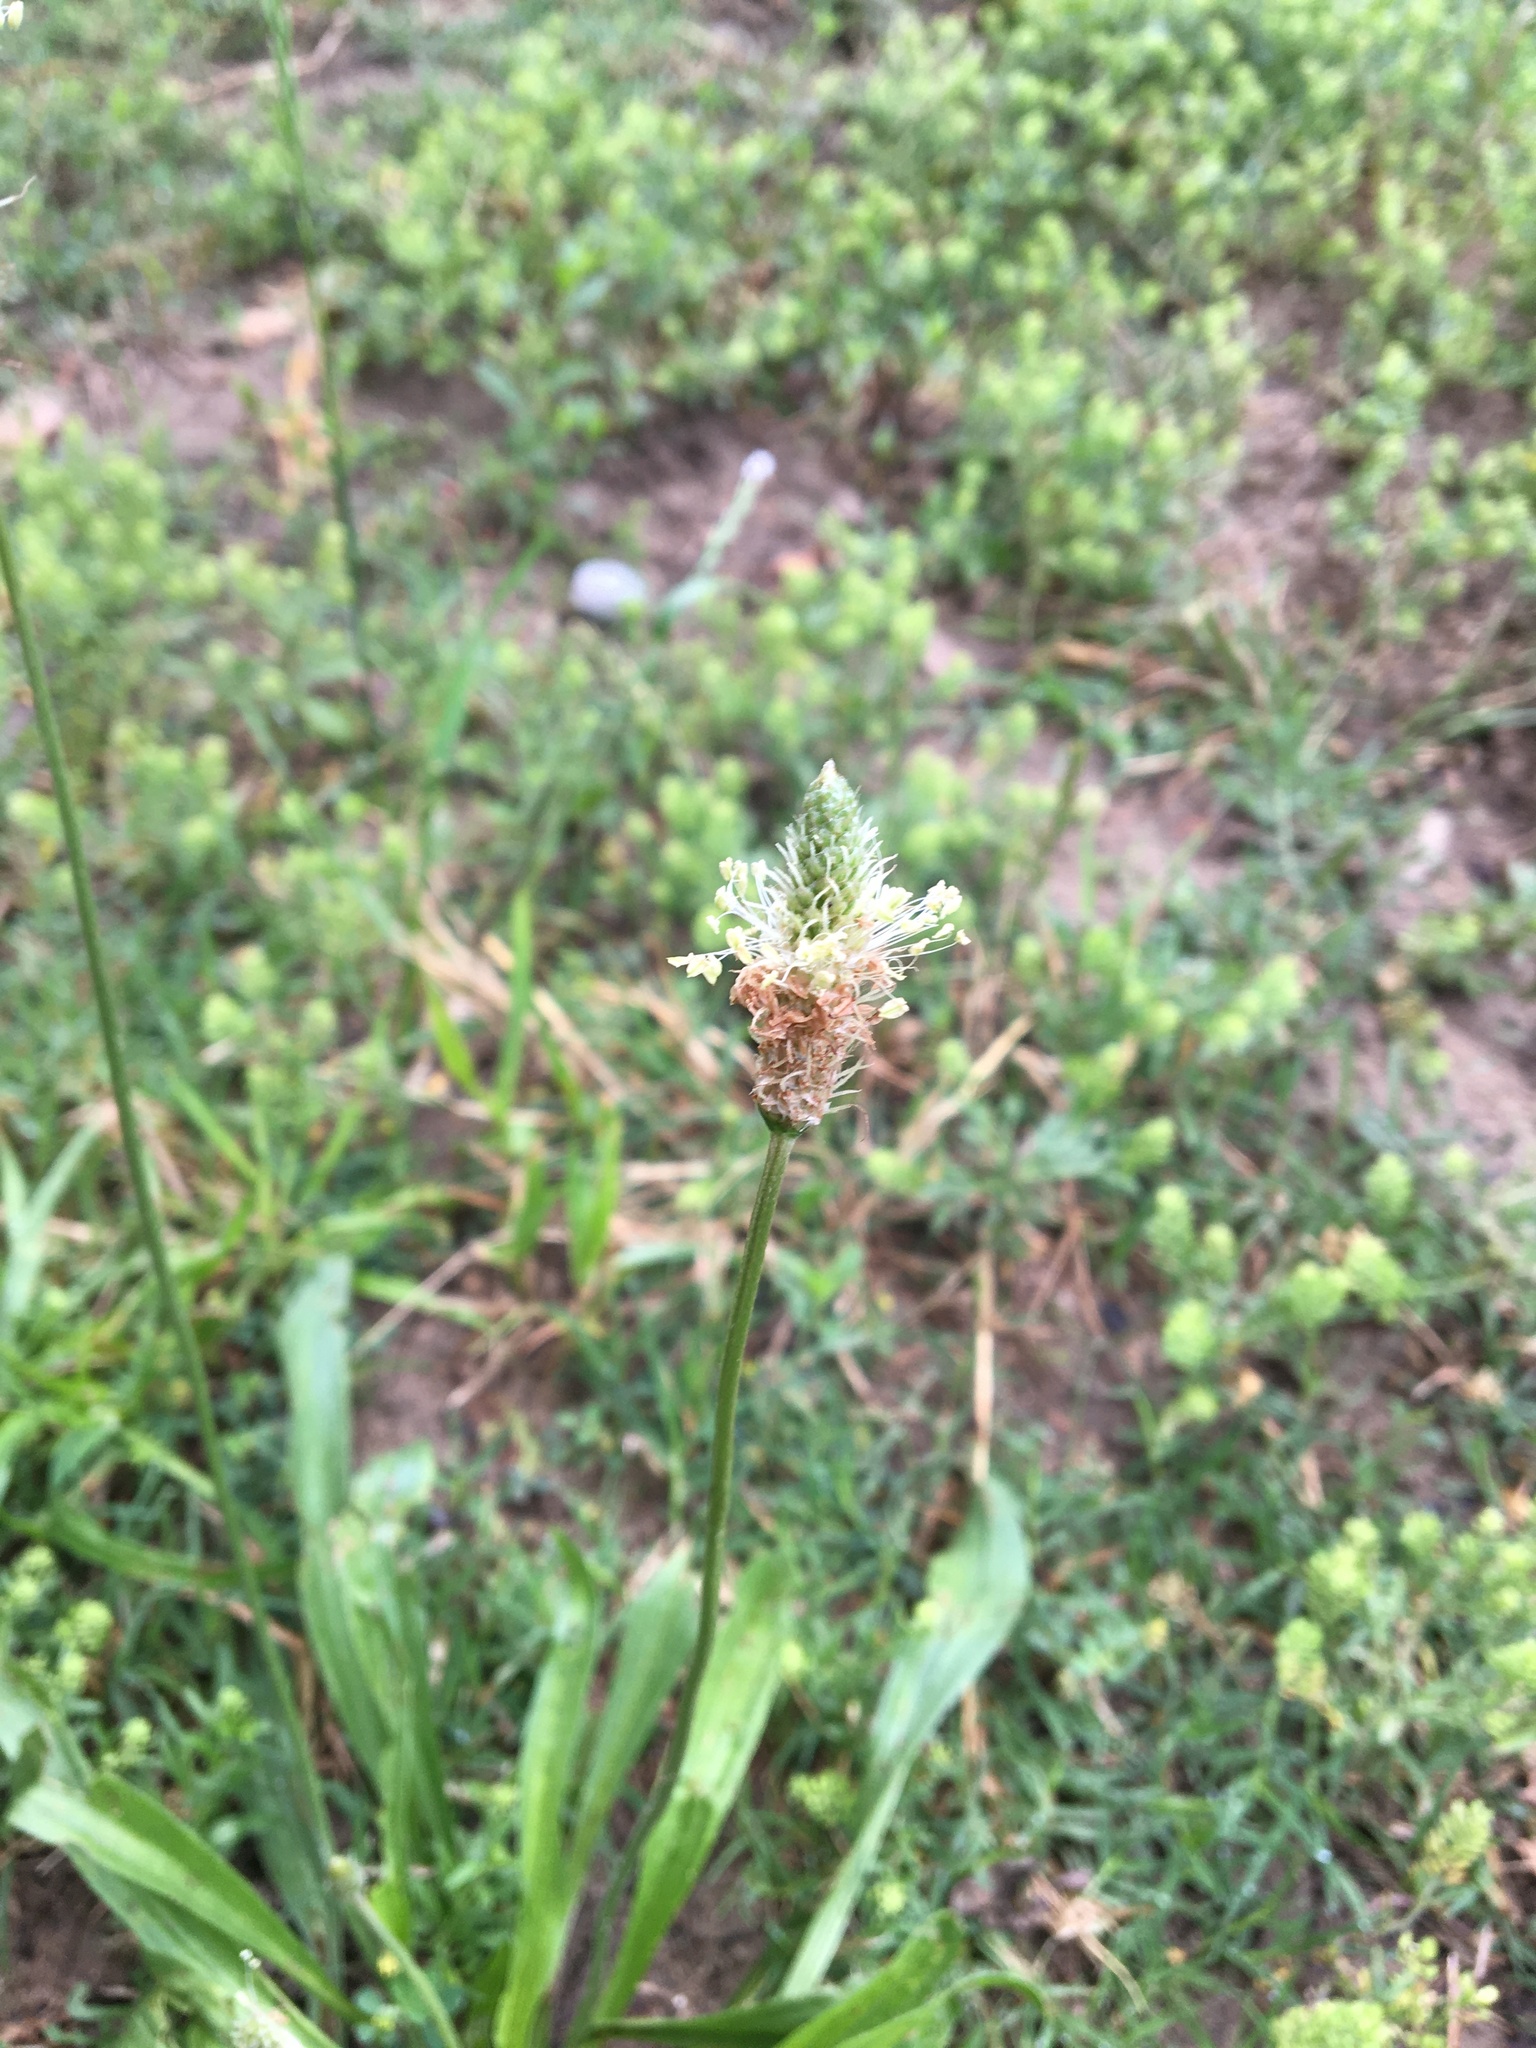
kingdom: Plantae
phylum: Tracheophyta
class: Magnoliopsida
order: Lamiales
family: Plantaginaceae
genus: Plantago
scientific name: Plantago lanceolata
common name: Ribwort plantain
